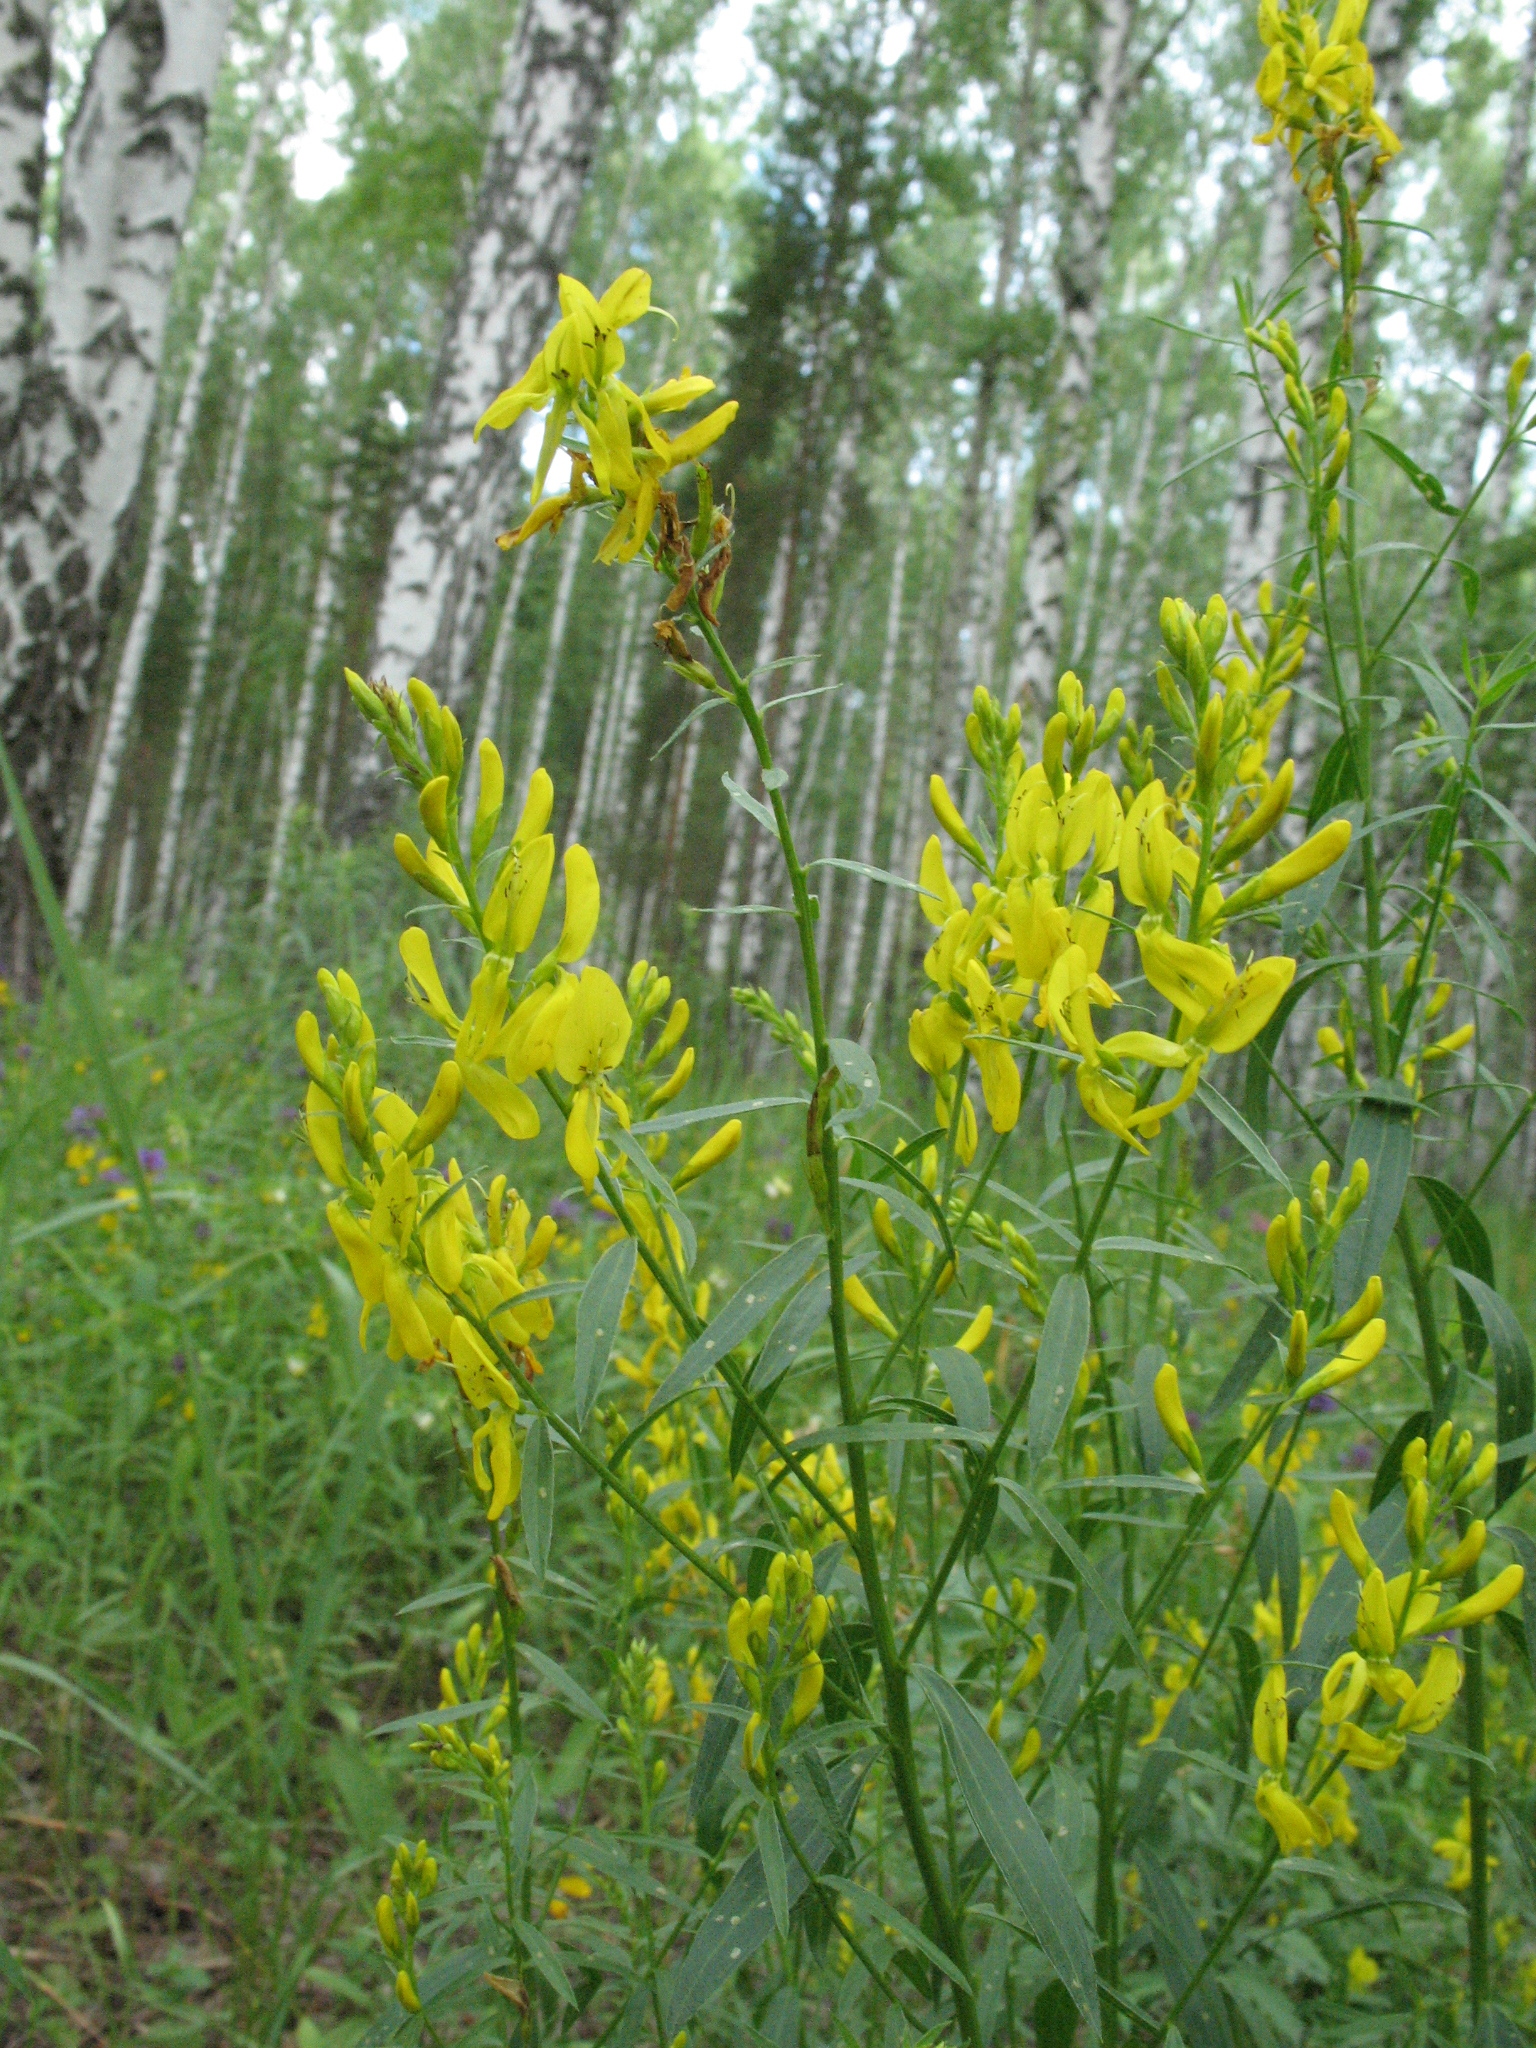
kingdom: Plantae
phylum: Tracheophyta
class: Magnoliopsida
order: Fabales
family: Fabaceae
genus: Genista
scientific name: Genista tinctoria
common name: Dyer's greenweed
